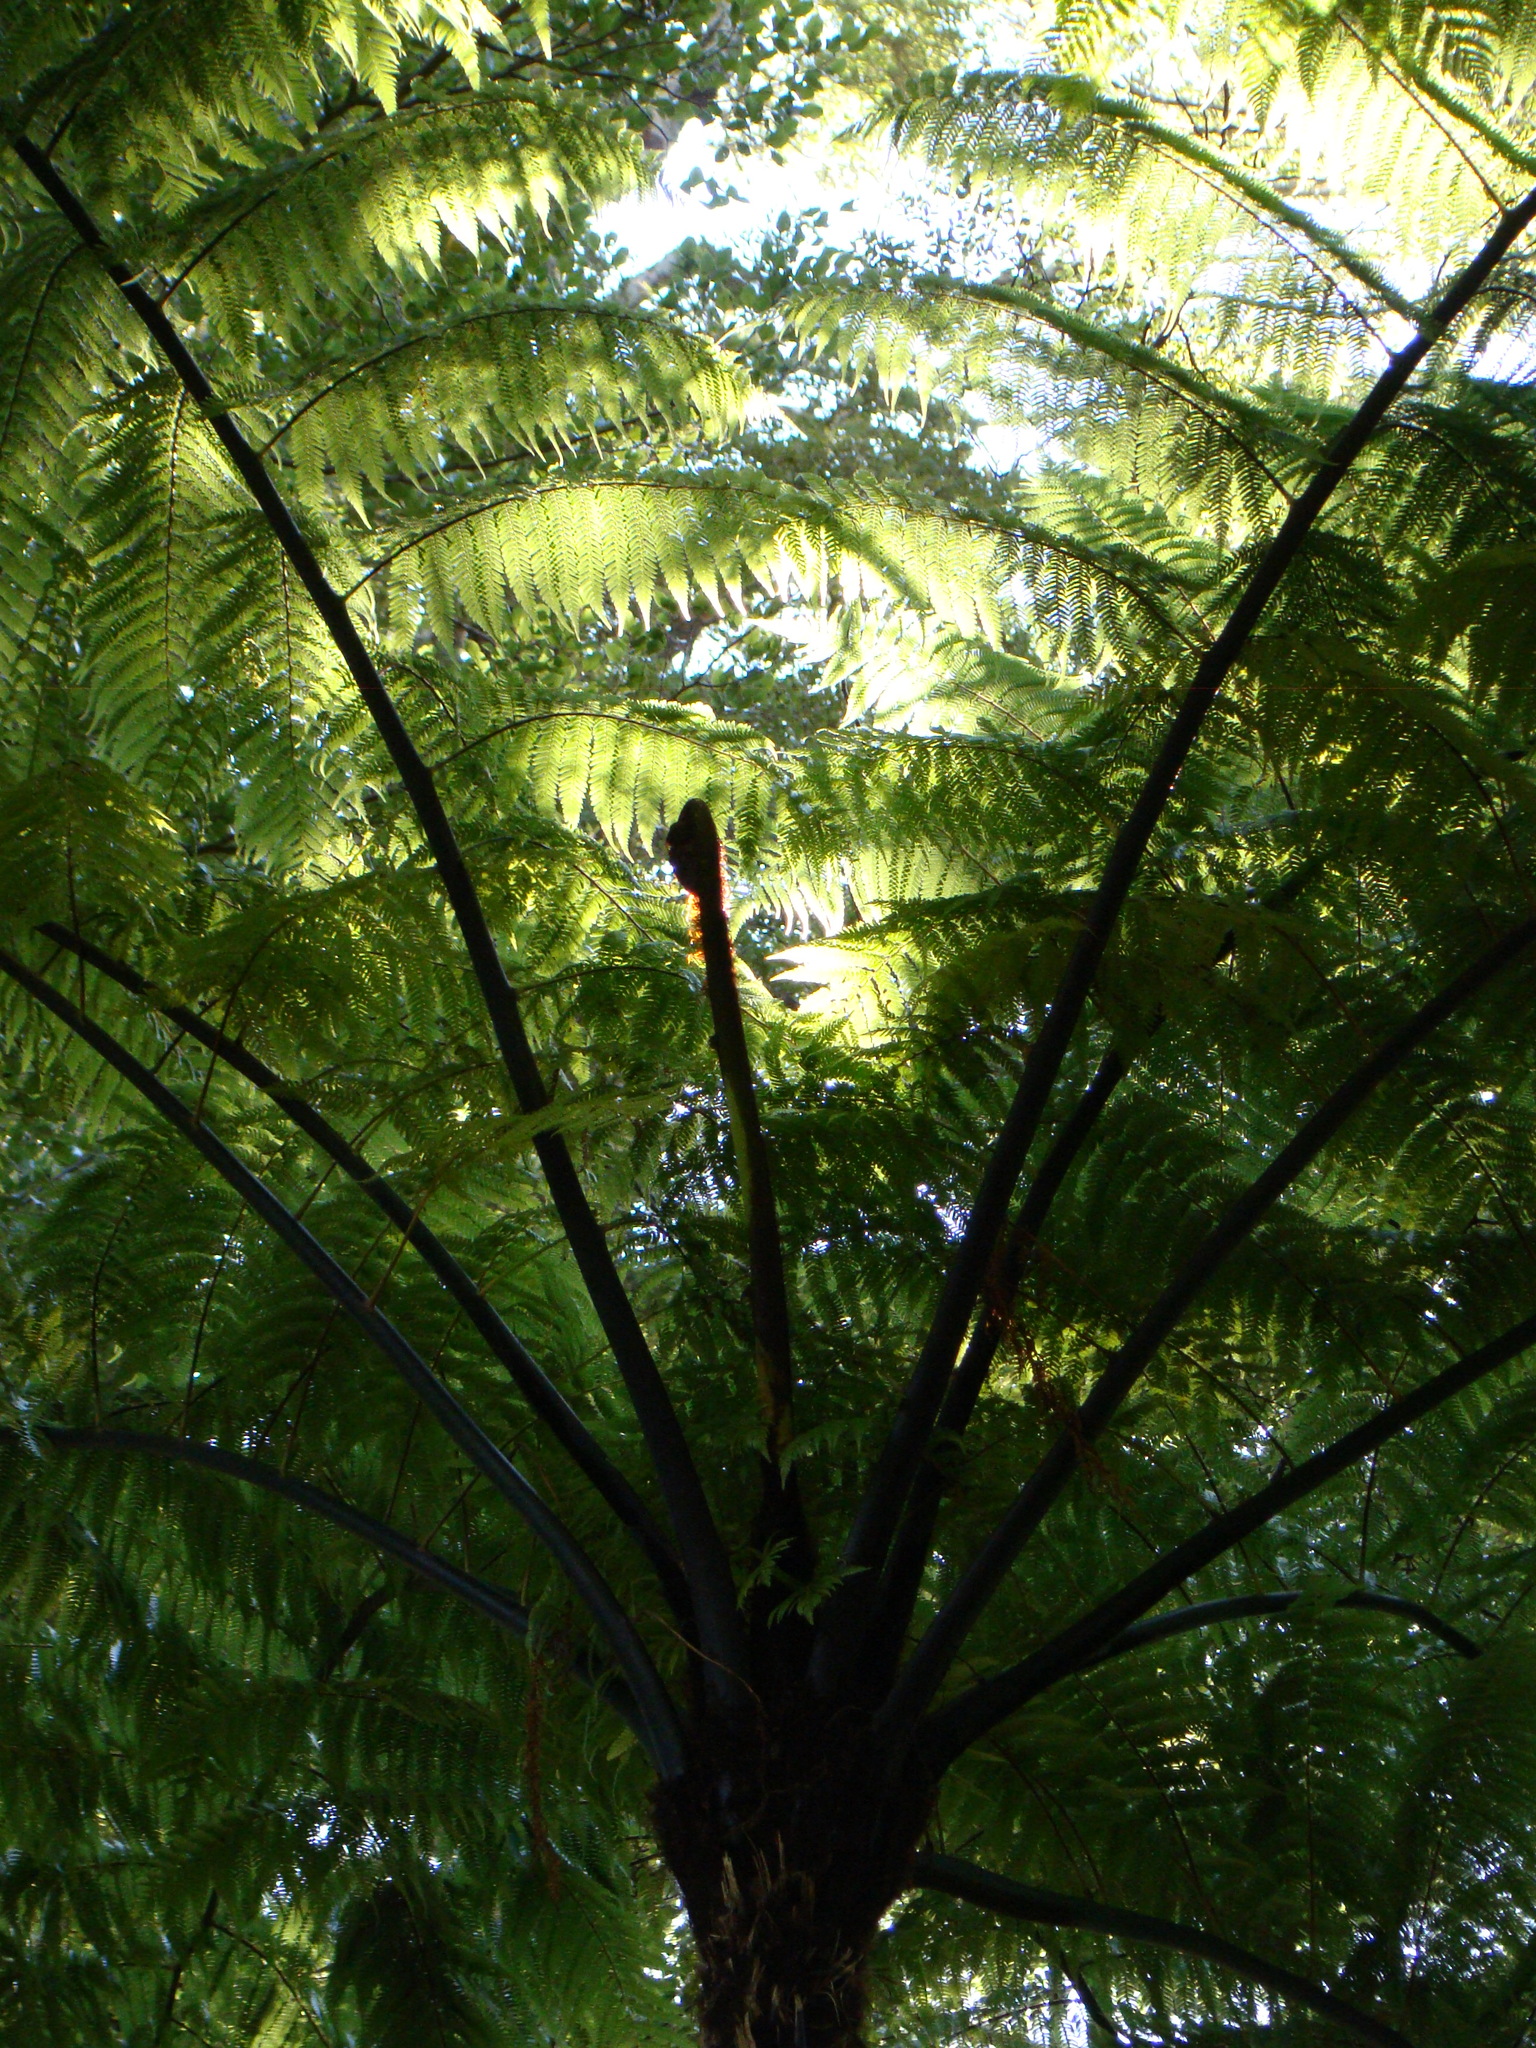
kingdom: Plantae
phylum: Tracheophyta
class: Polypodiopsida
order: Cyatheales
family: Cyatheaceae
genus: Sphaeropteris
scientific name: Sphaeropteris medullaris
